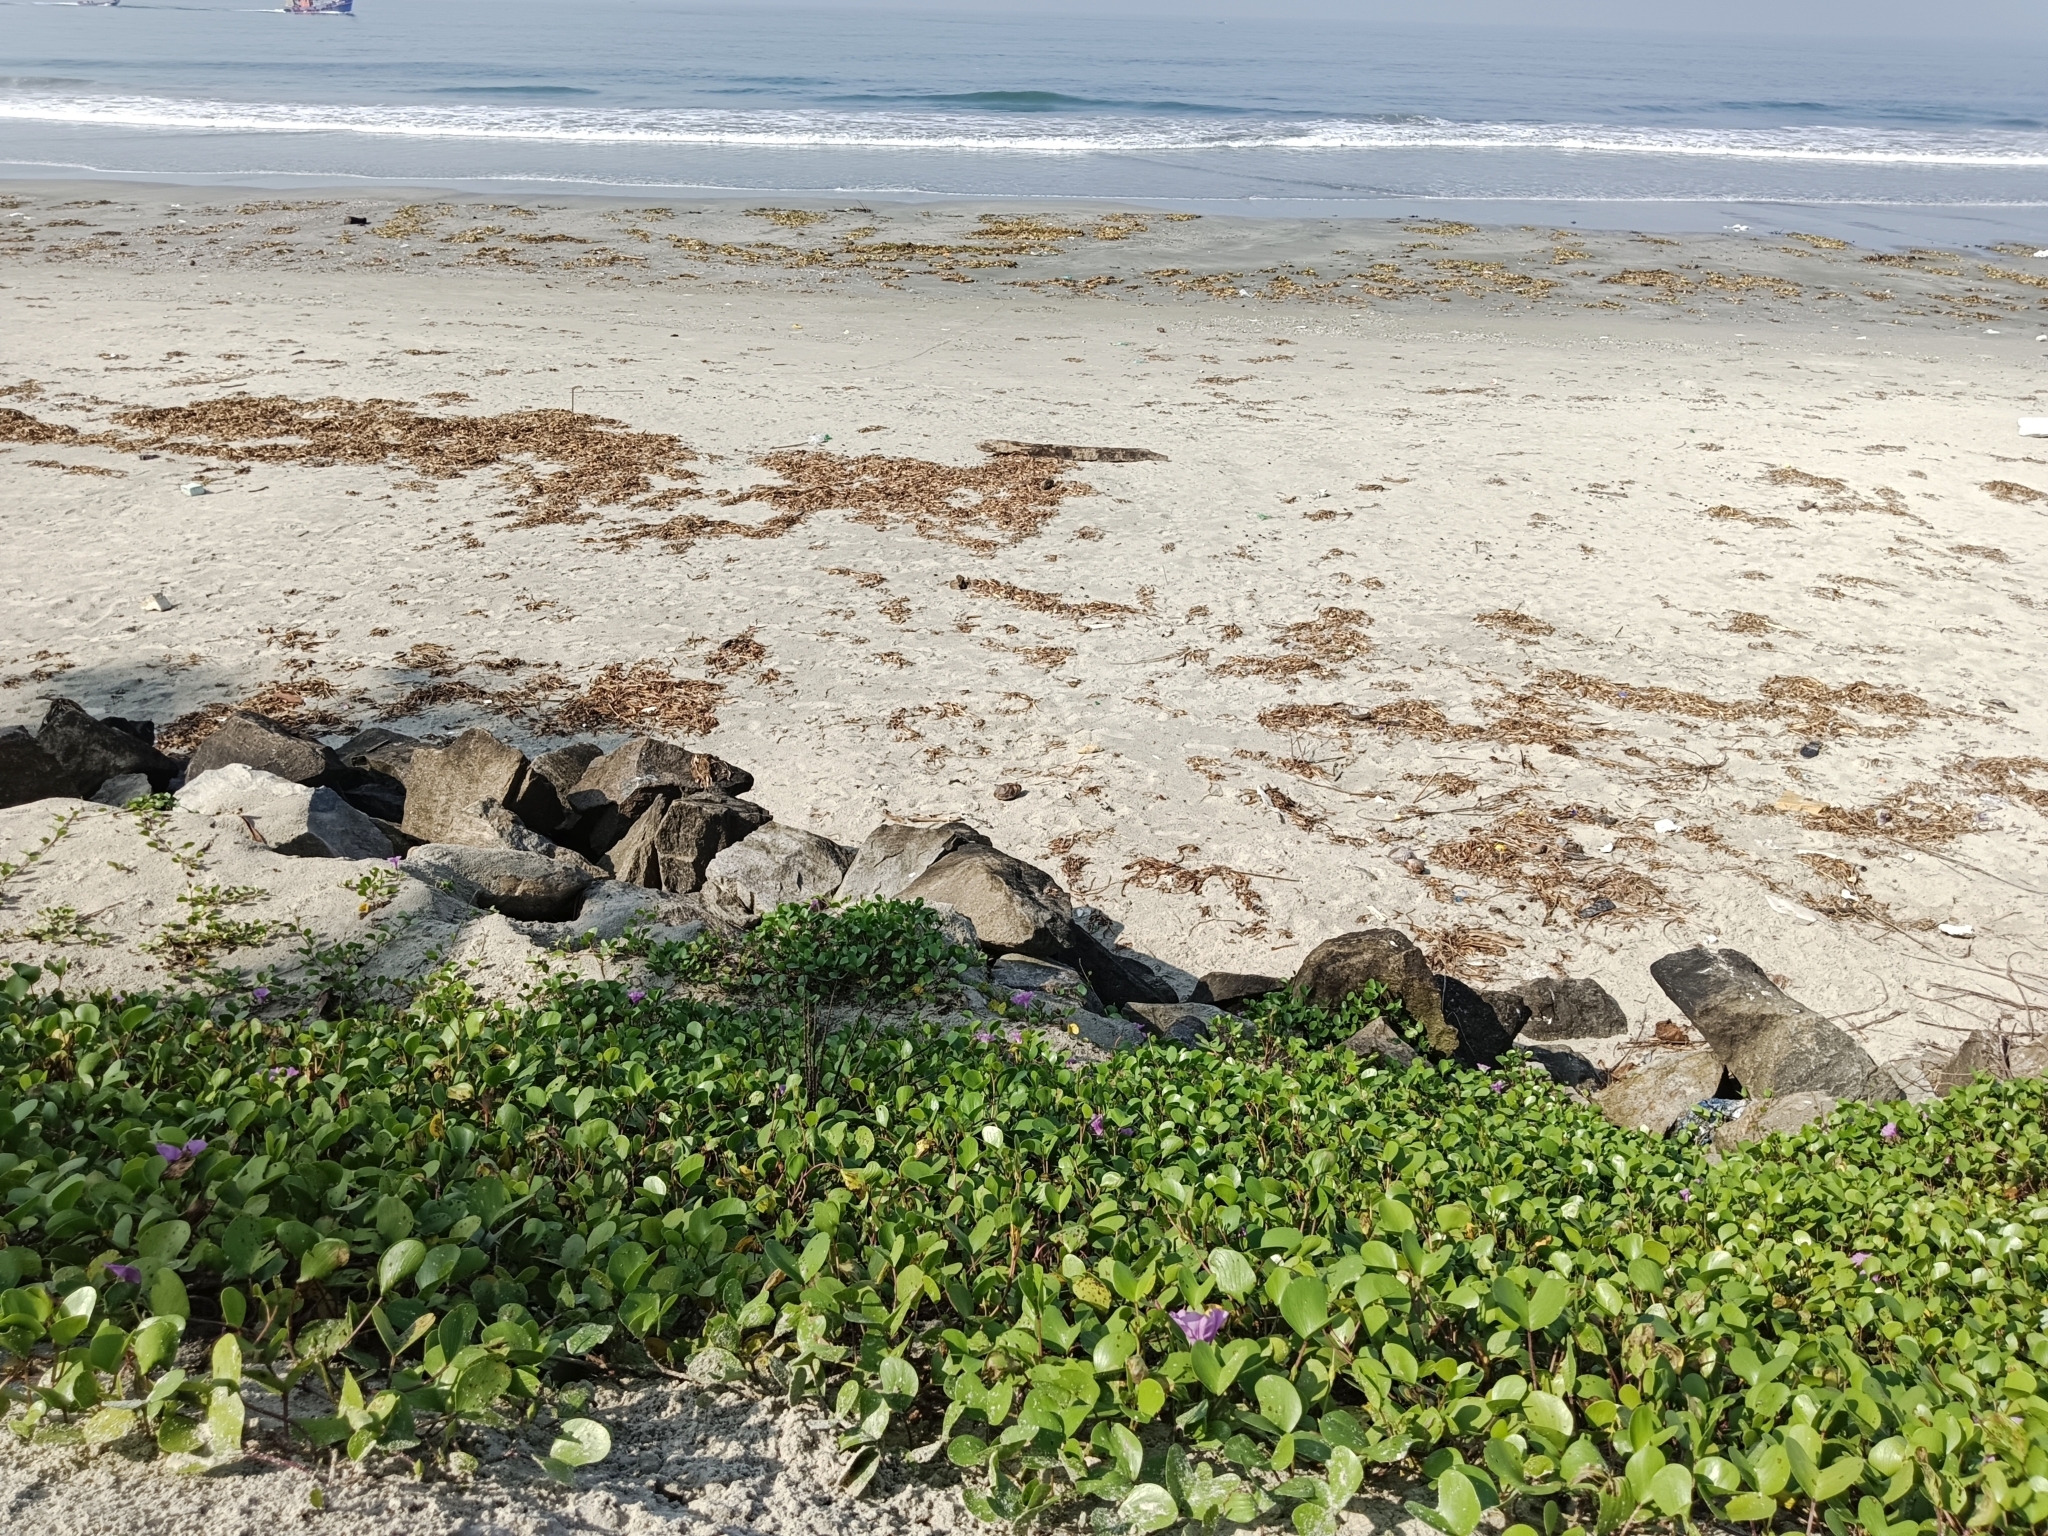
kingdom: Plantae
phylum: Tracheophyta
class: Magnoliopsida
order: Solanales
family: Convolvulaceae
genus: Ipomoea
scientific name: Ipomoea pes-caprae
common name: Beach morning glory
